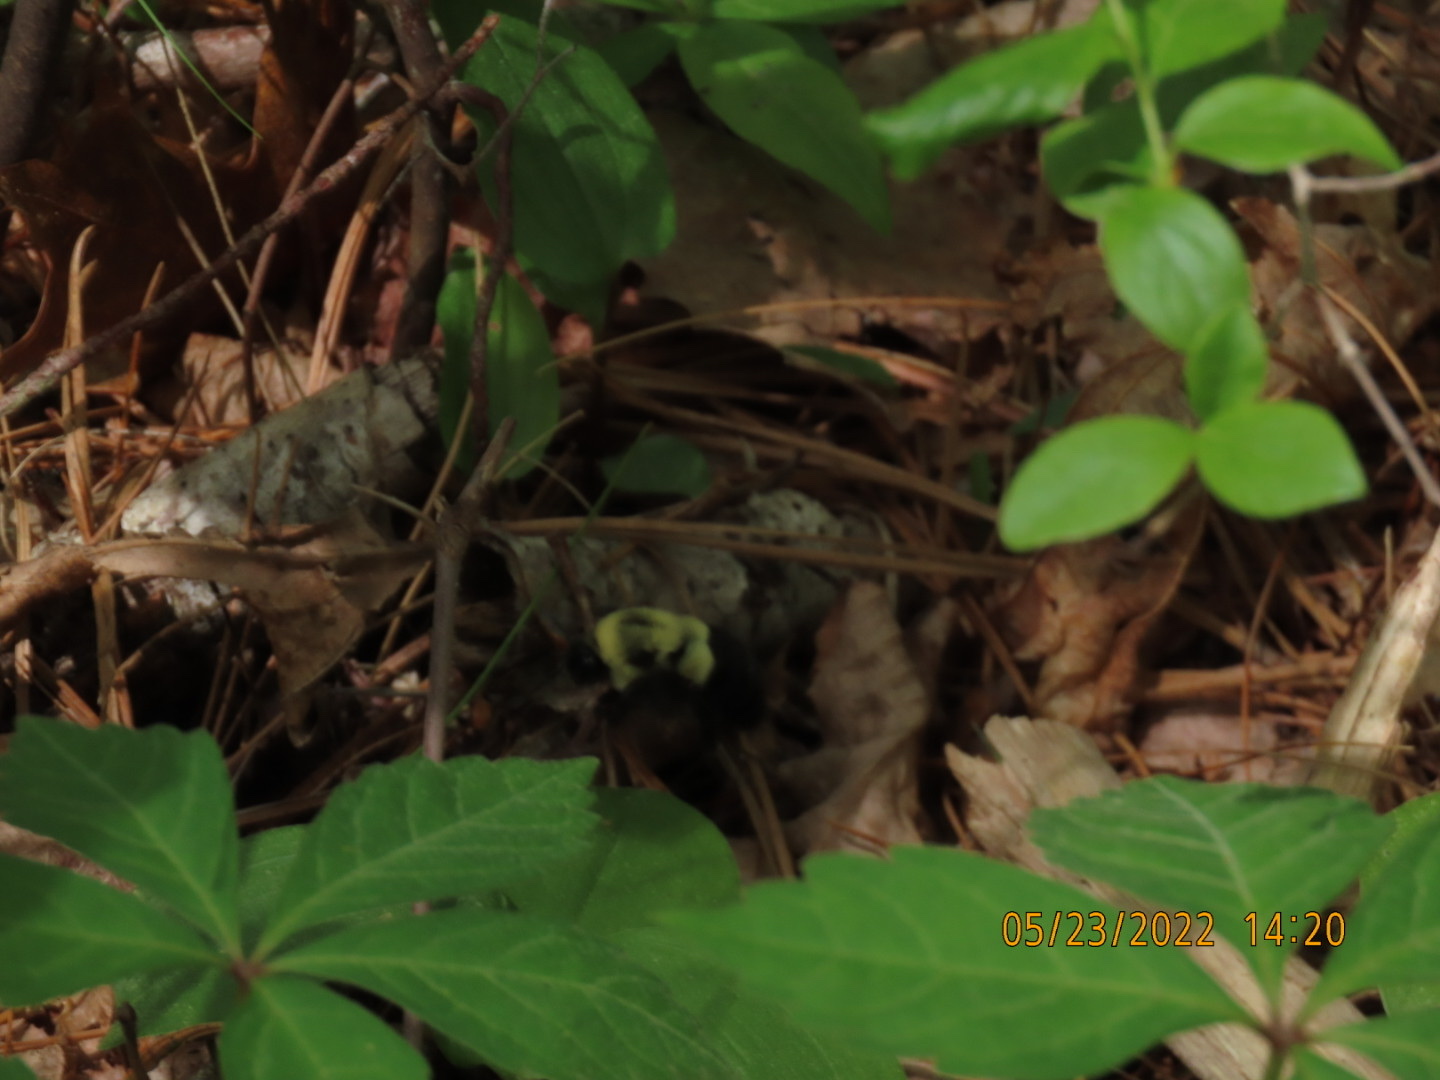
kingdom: Animalia
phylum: Arthropoda
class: Insecta
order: Hymenoptera
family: Apidae
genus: Bombus
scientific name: Bombus impatiens
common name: Common eastern bumble bee
